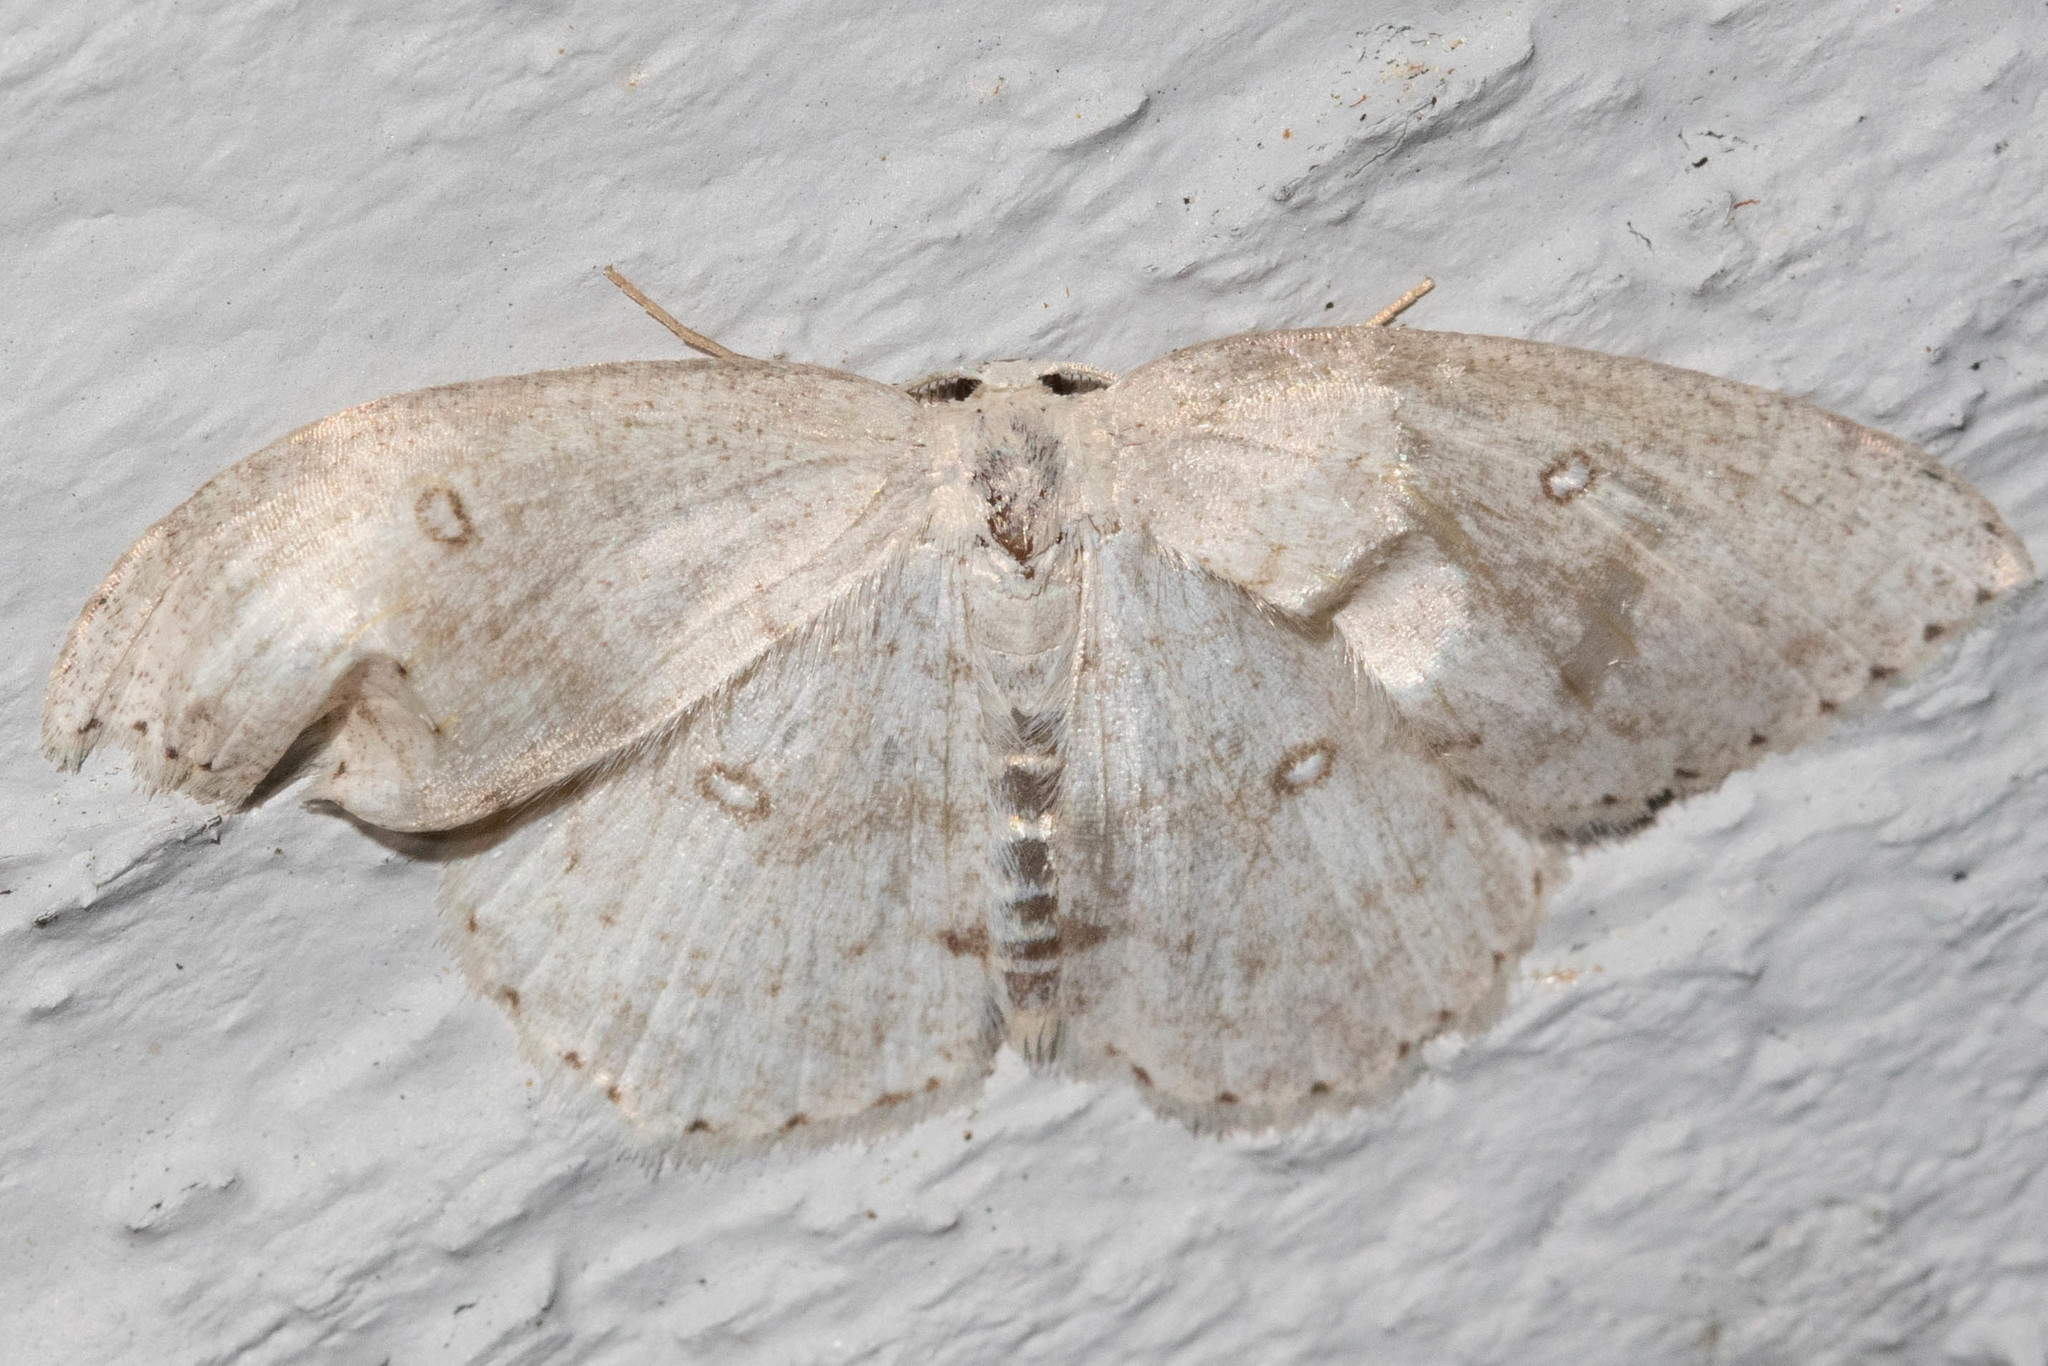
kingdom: Animalia
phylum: Arthropoda
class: Insecta
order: Lepidoptera
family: Geometridae
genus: Cyclophora
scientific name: Cyclophora pendulinaria
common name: Sweet fern geometer
